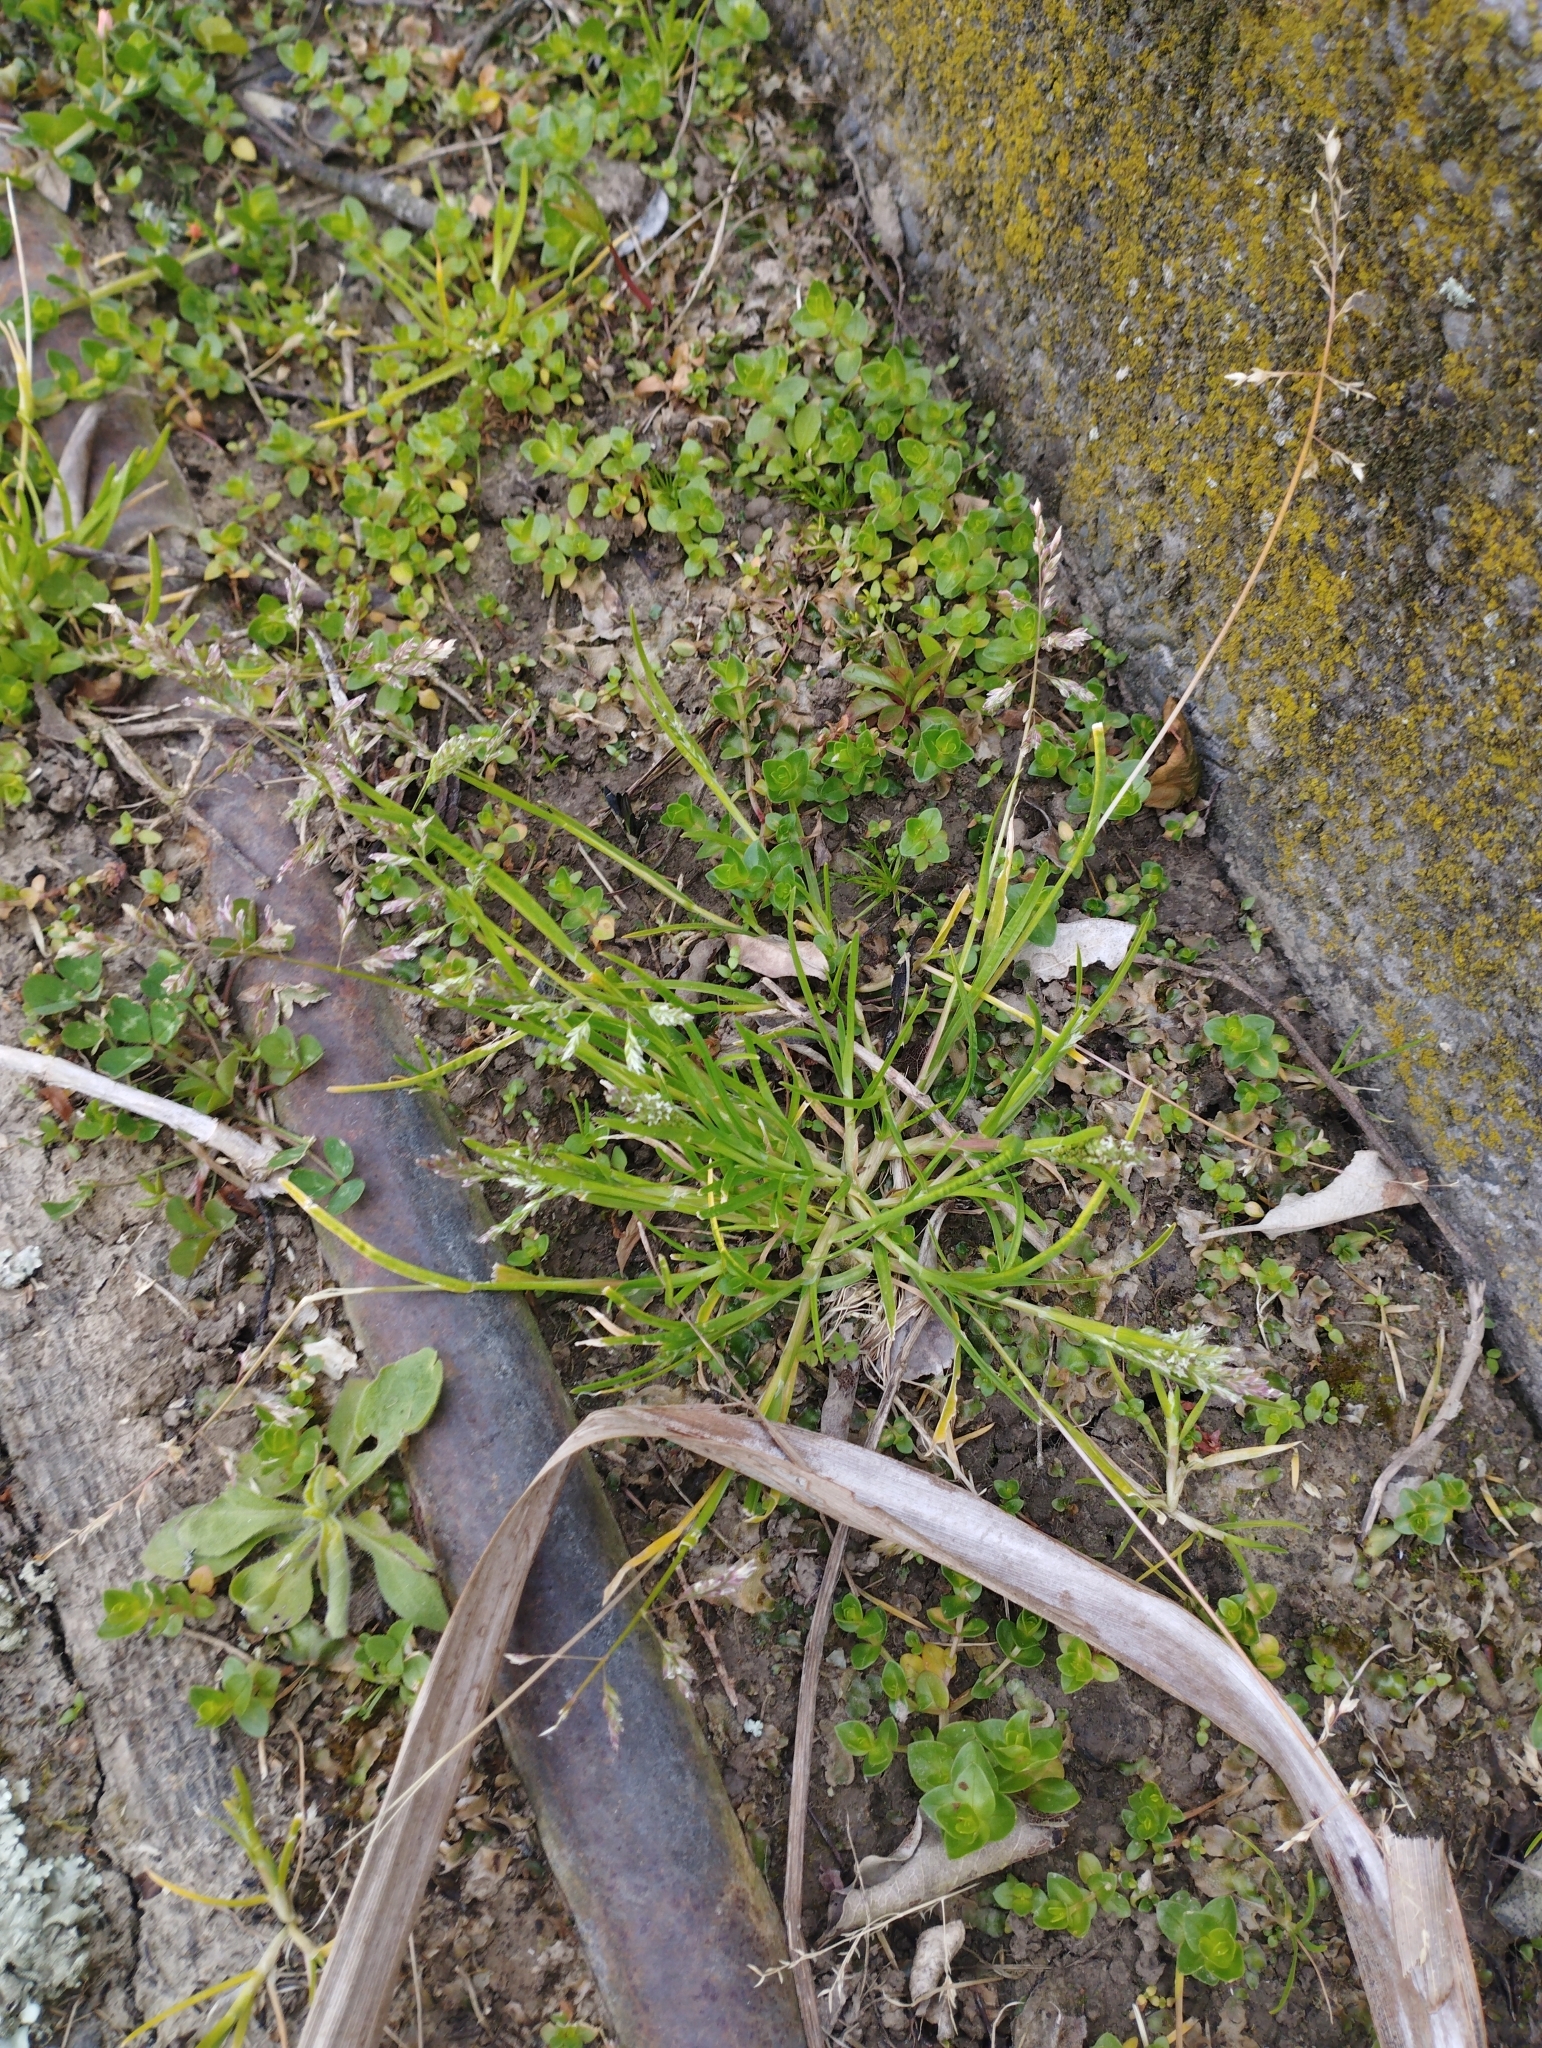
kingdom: Plantae
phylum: Tracheophyta
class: Liliopsida
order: Poales
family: Poaceae
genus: Poa
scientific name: Poa annua
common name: Annual bluegrass
